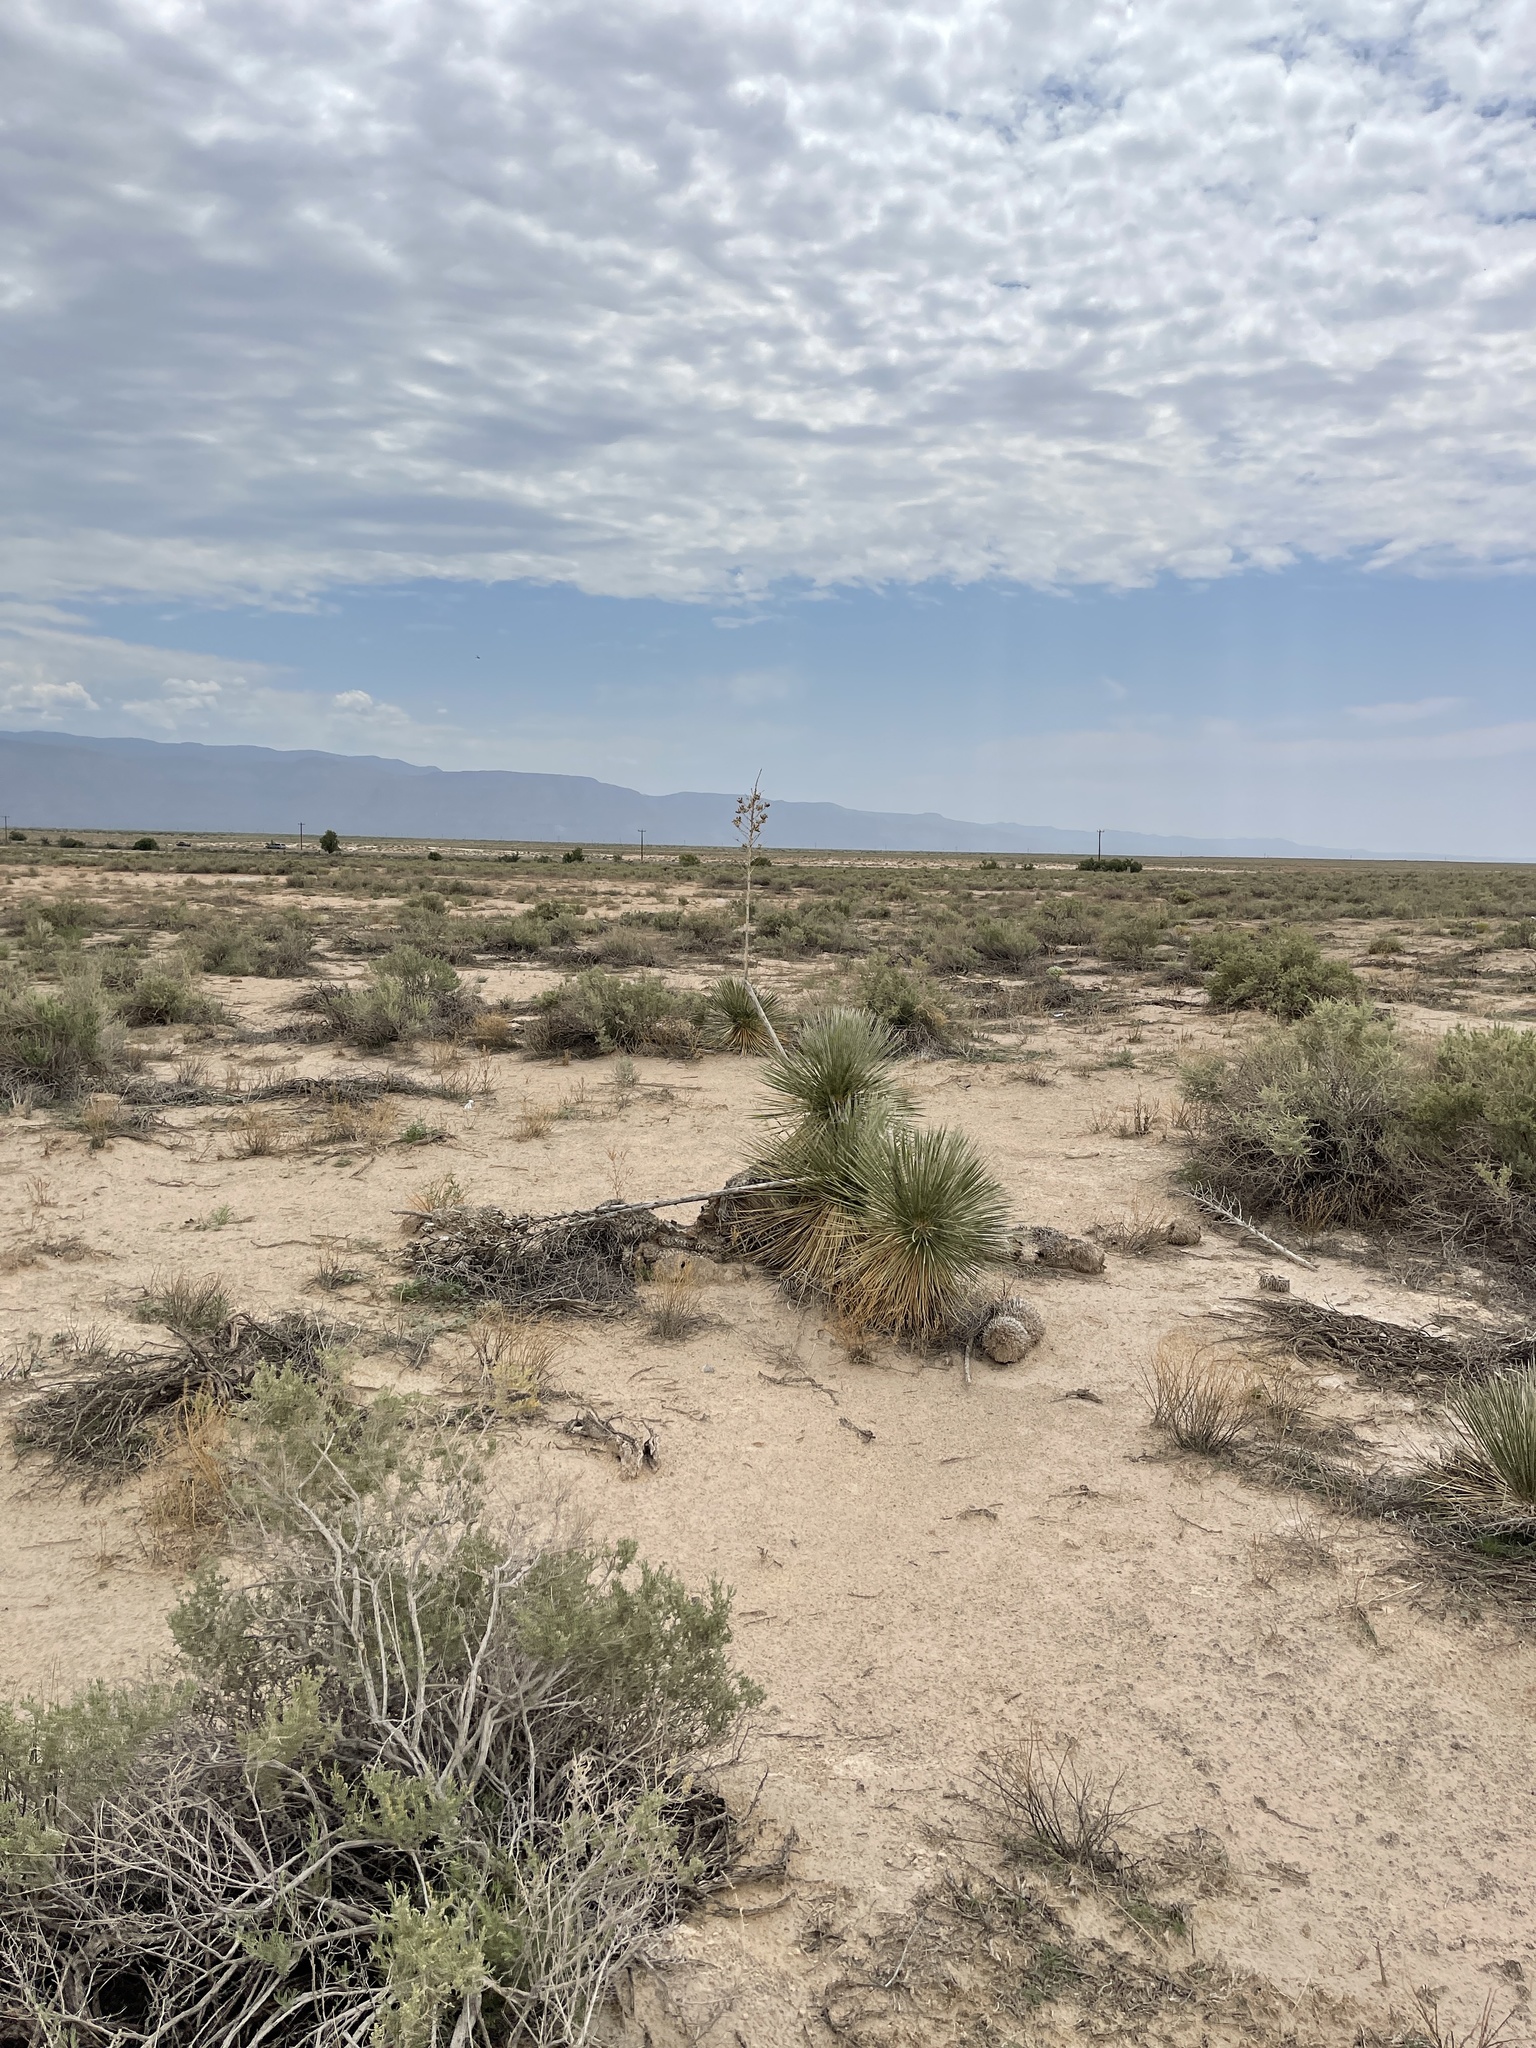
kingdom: Plantae
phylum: Tracheophyta
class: Liliopsida
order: Asparagales
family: Asparagaceae
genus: Yucca
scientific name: Yucca elata
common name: Palmella
